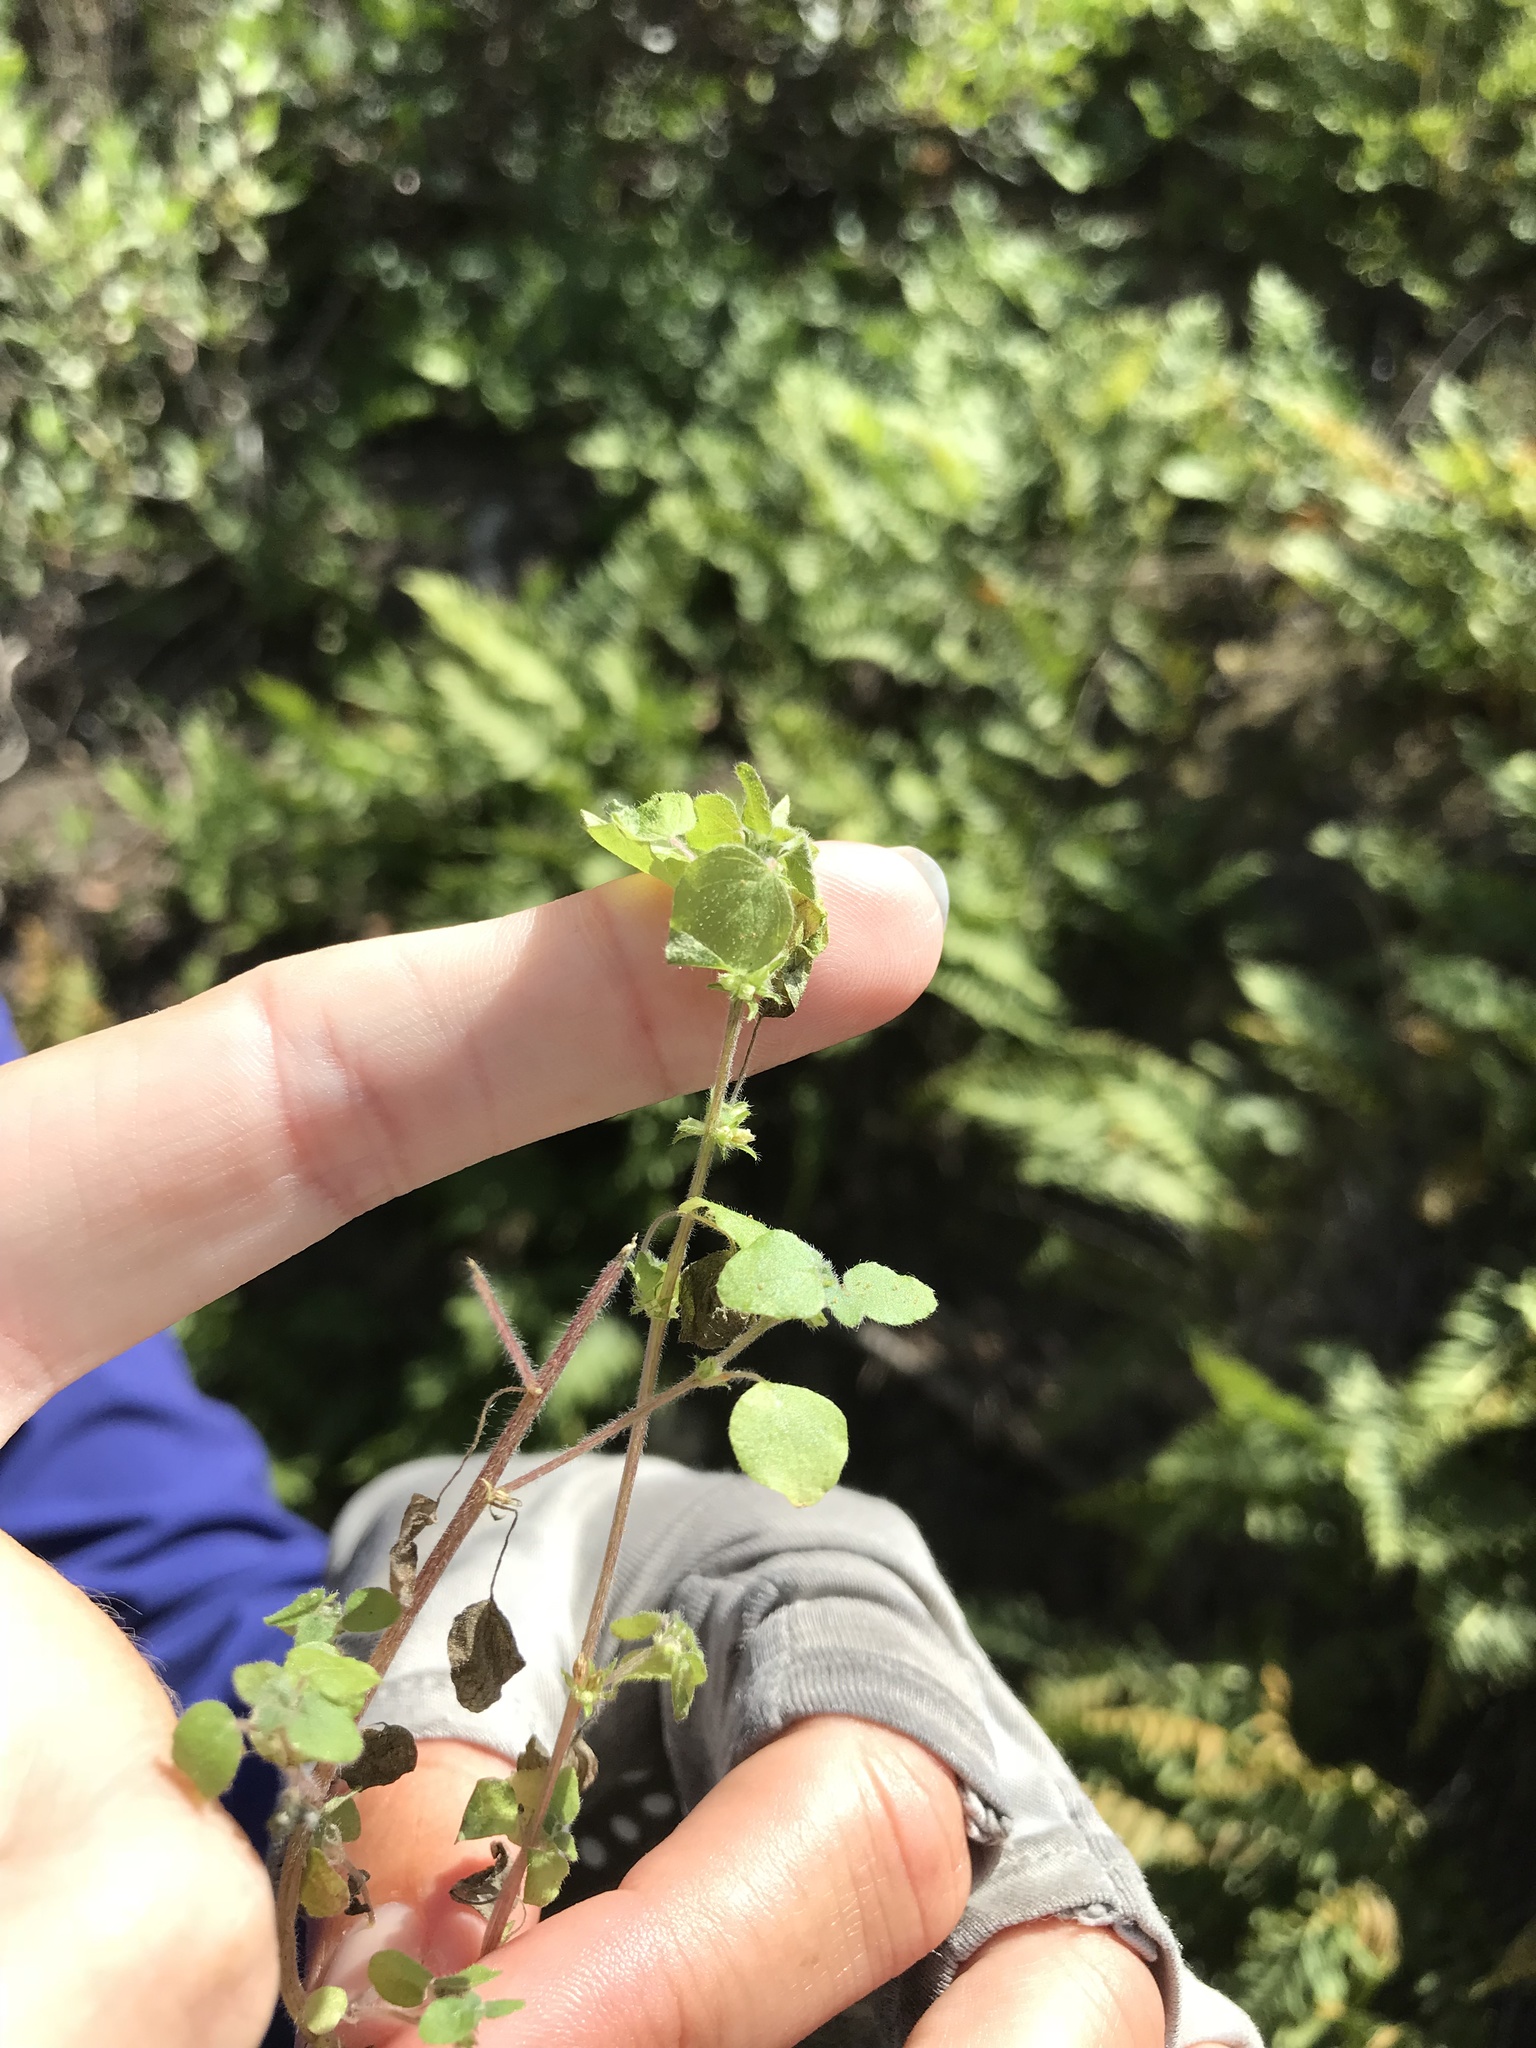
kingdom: Plantae
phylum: Tracheophyta
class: Magnoliopsida
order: Rosales
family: Urticaceae
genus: Parietaria
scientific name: Parietaria hespera
